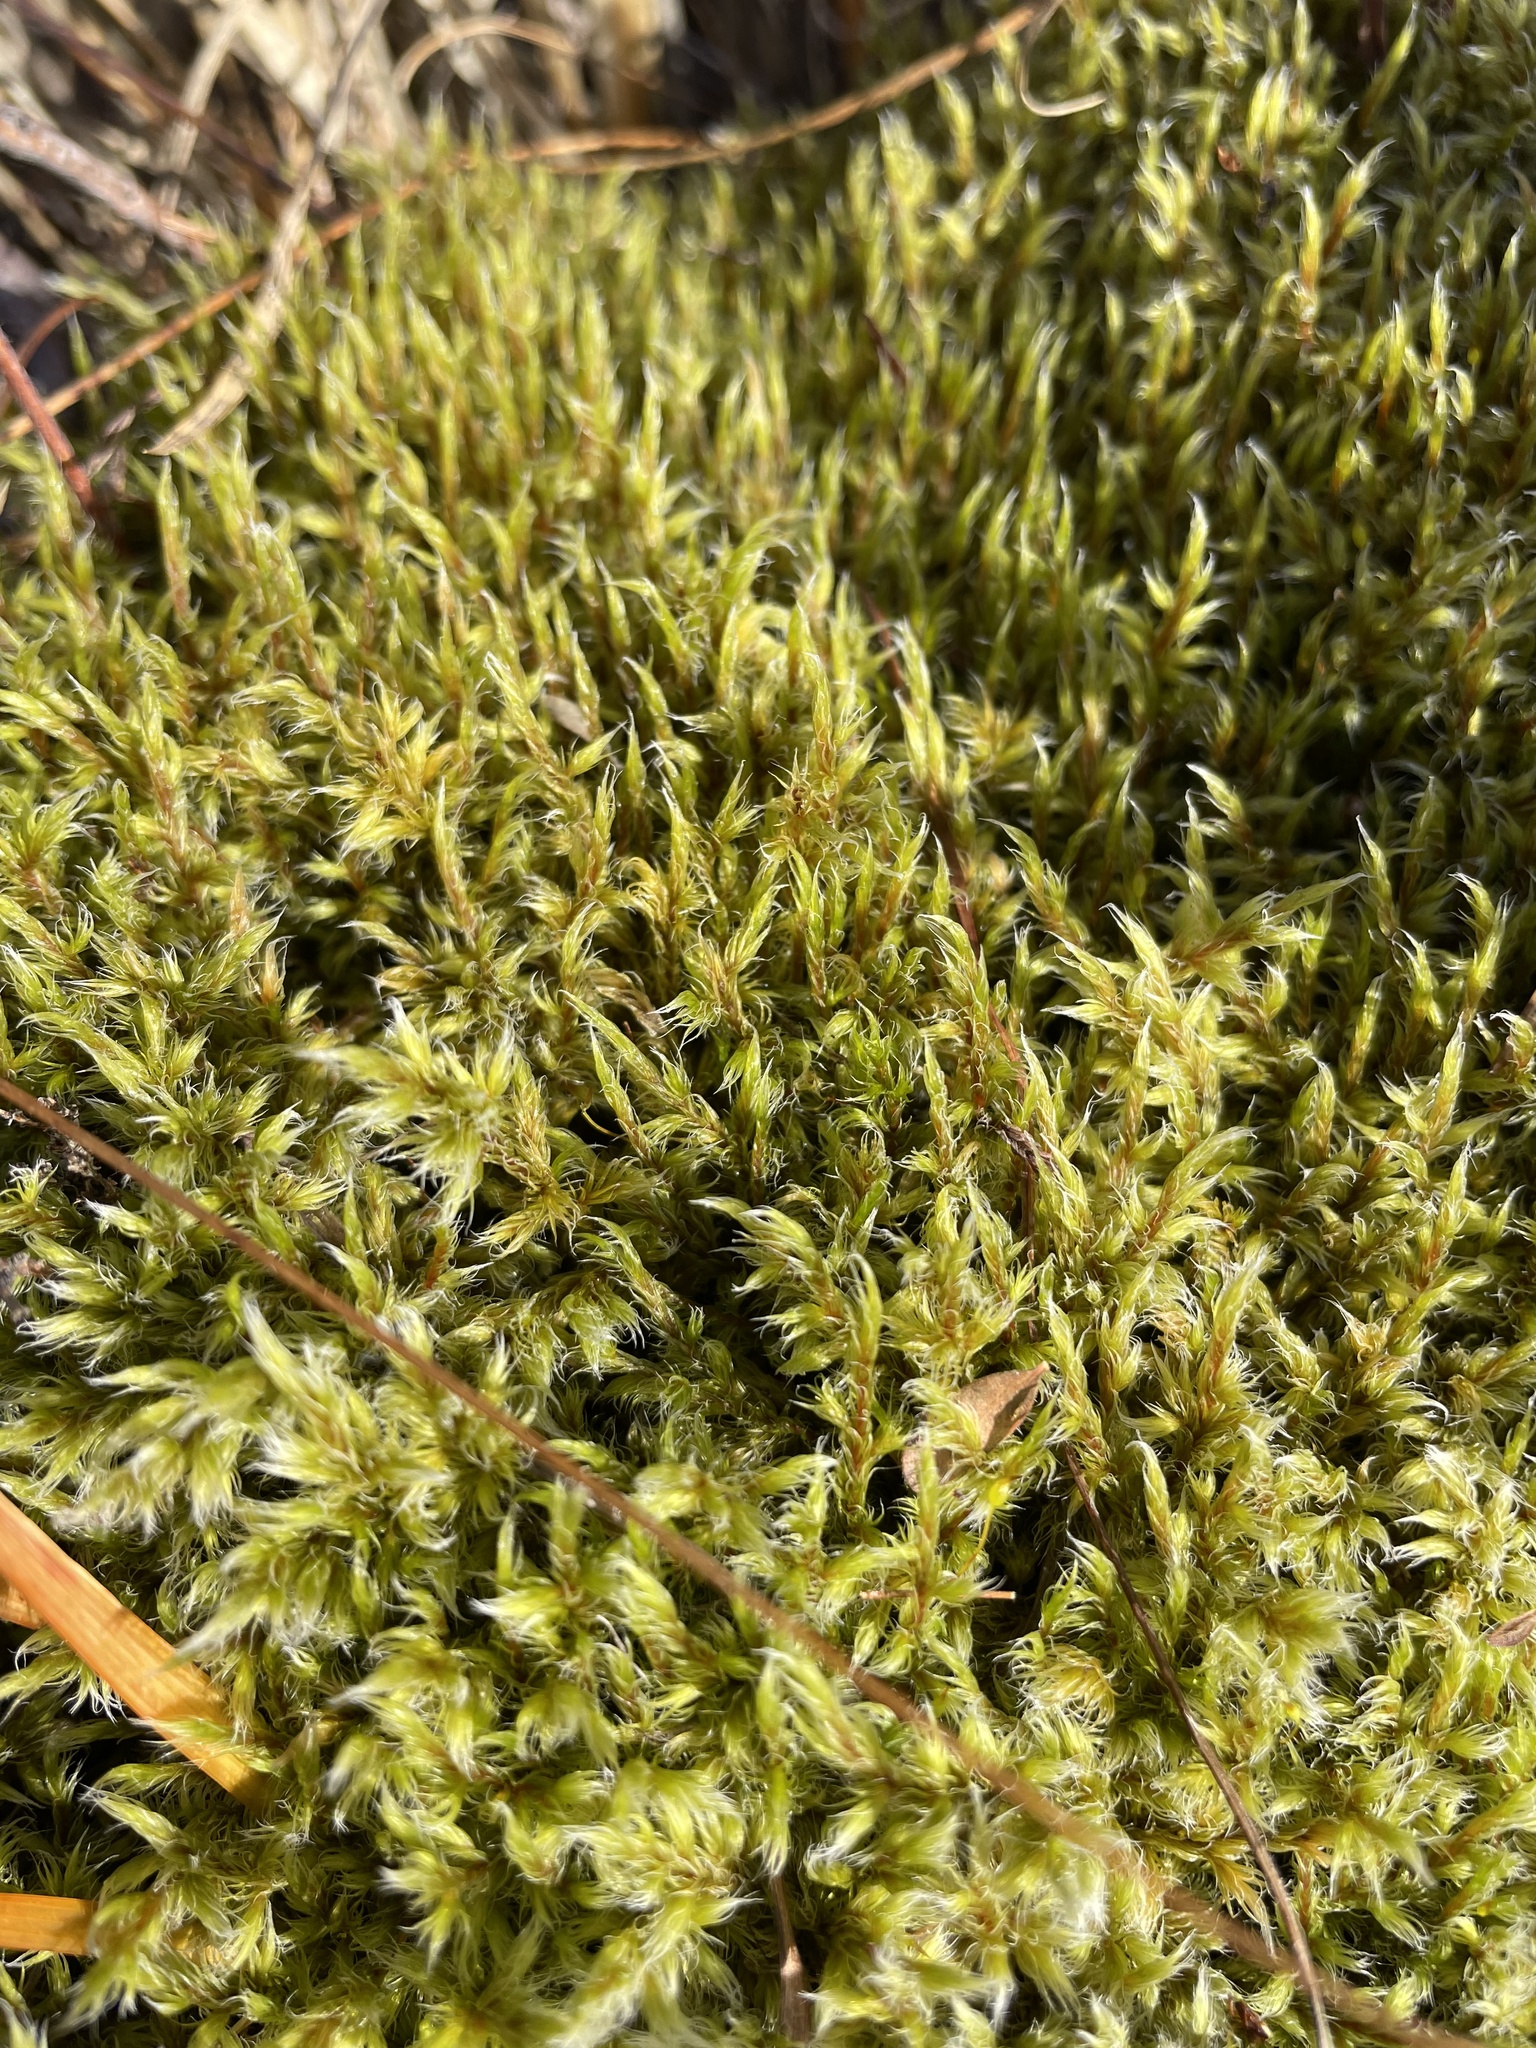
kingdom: Plantae
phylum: Bryophyta
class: Bryopsida
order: Grimmiales
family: Grimmiaceae
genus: Racomitrium
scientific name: Racomitrium lanuginosum
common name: Hoary rock moss
